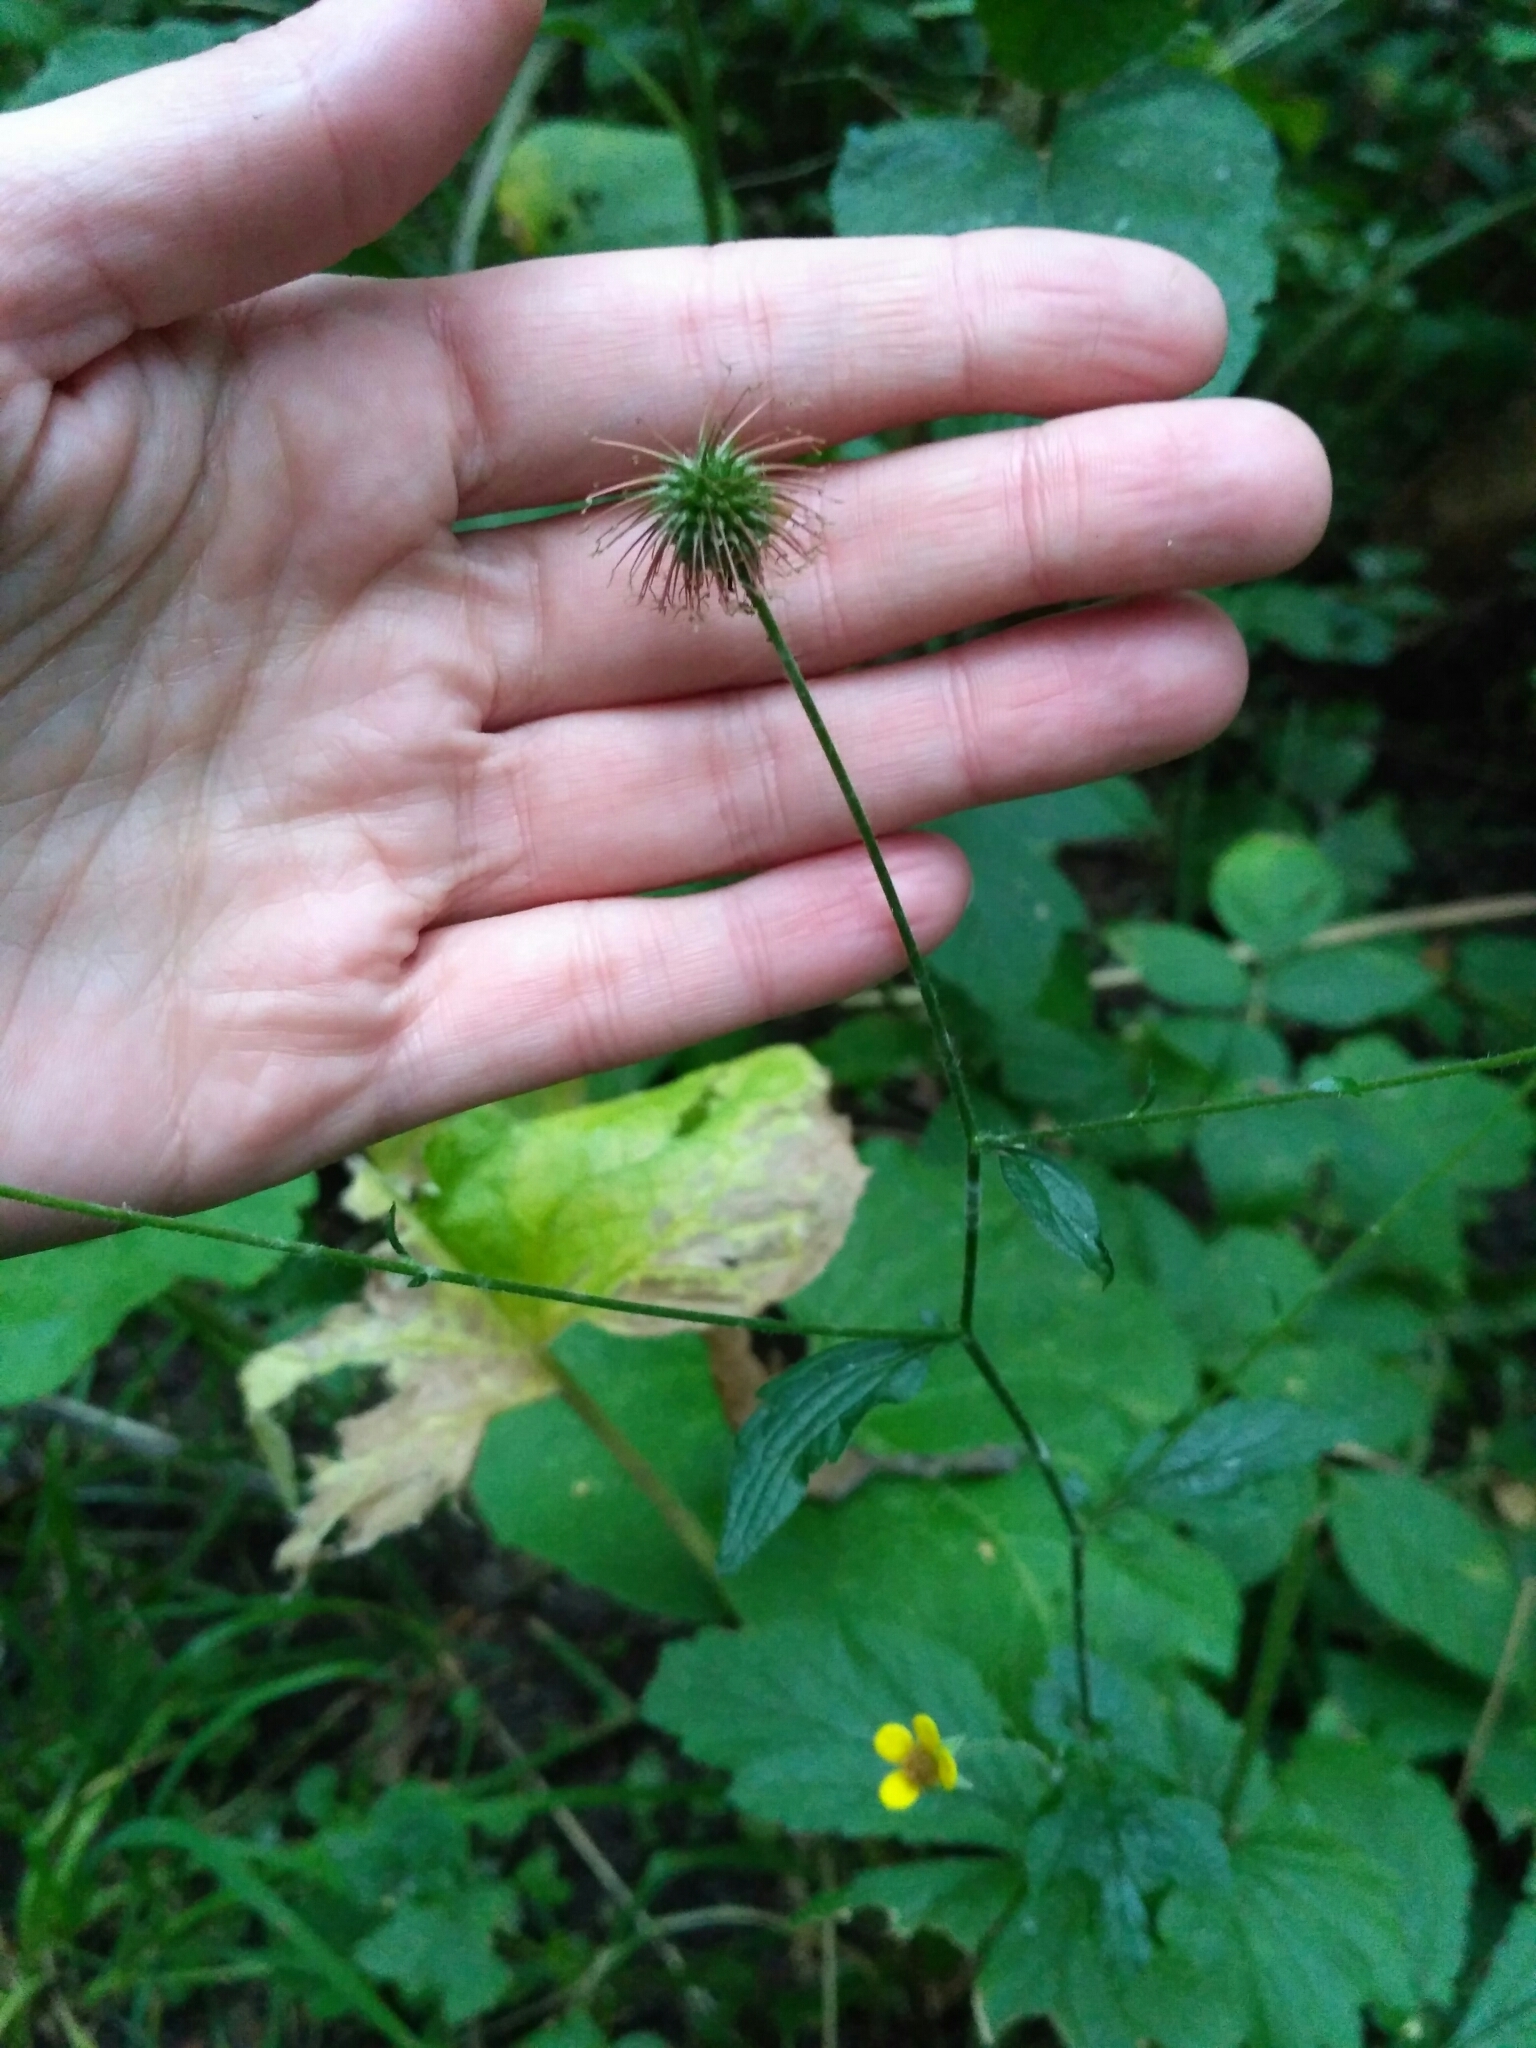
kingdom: Plantae
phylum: Tracheophyta
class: Magnoliopsida
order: Rosales
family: Rosaceae
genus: Geum
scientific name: Geum urbanum
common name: Wood avens
